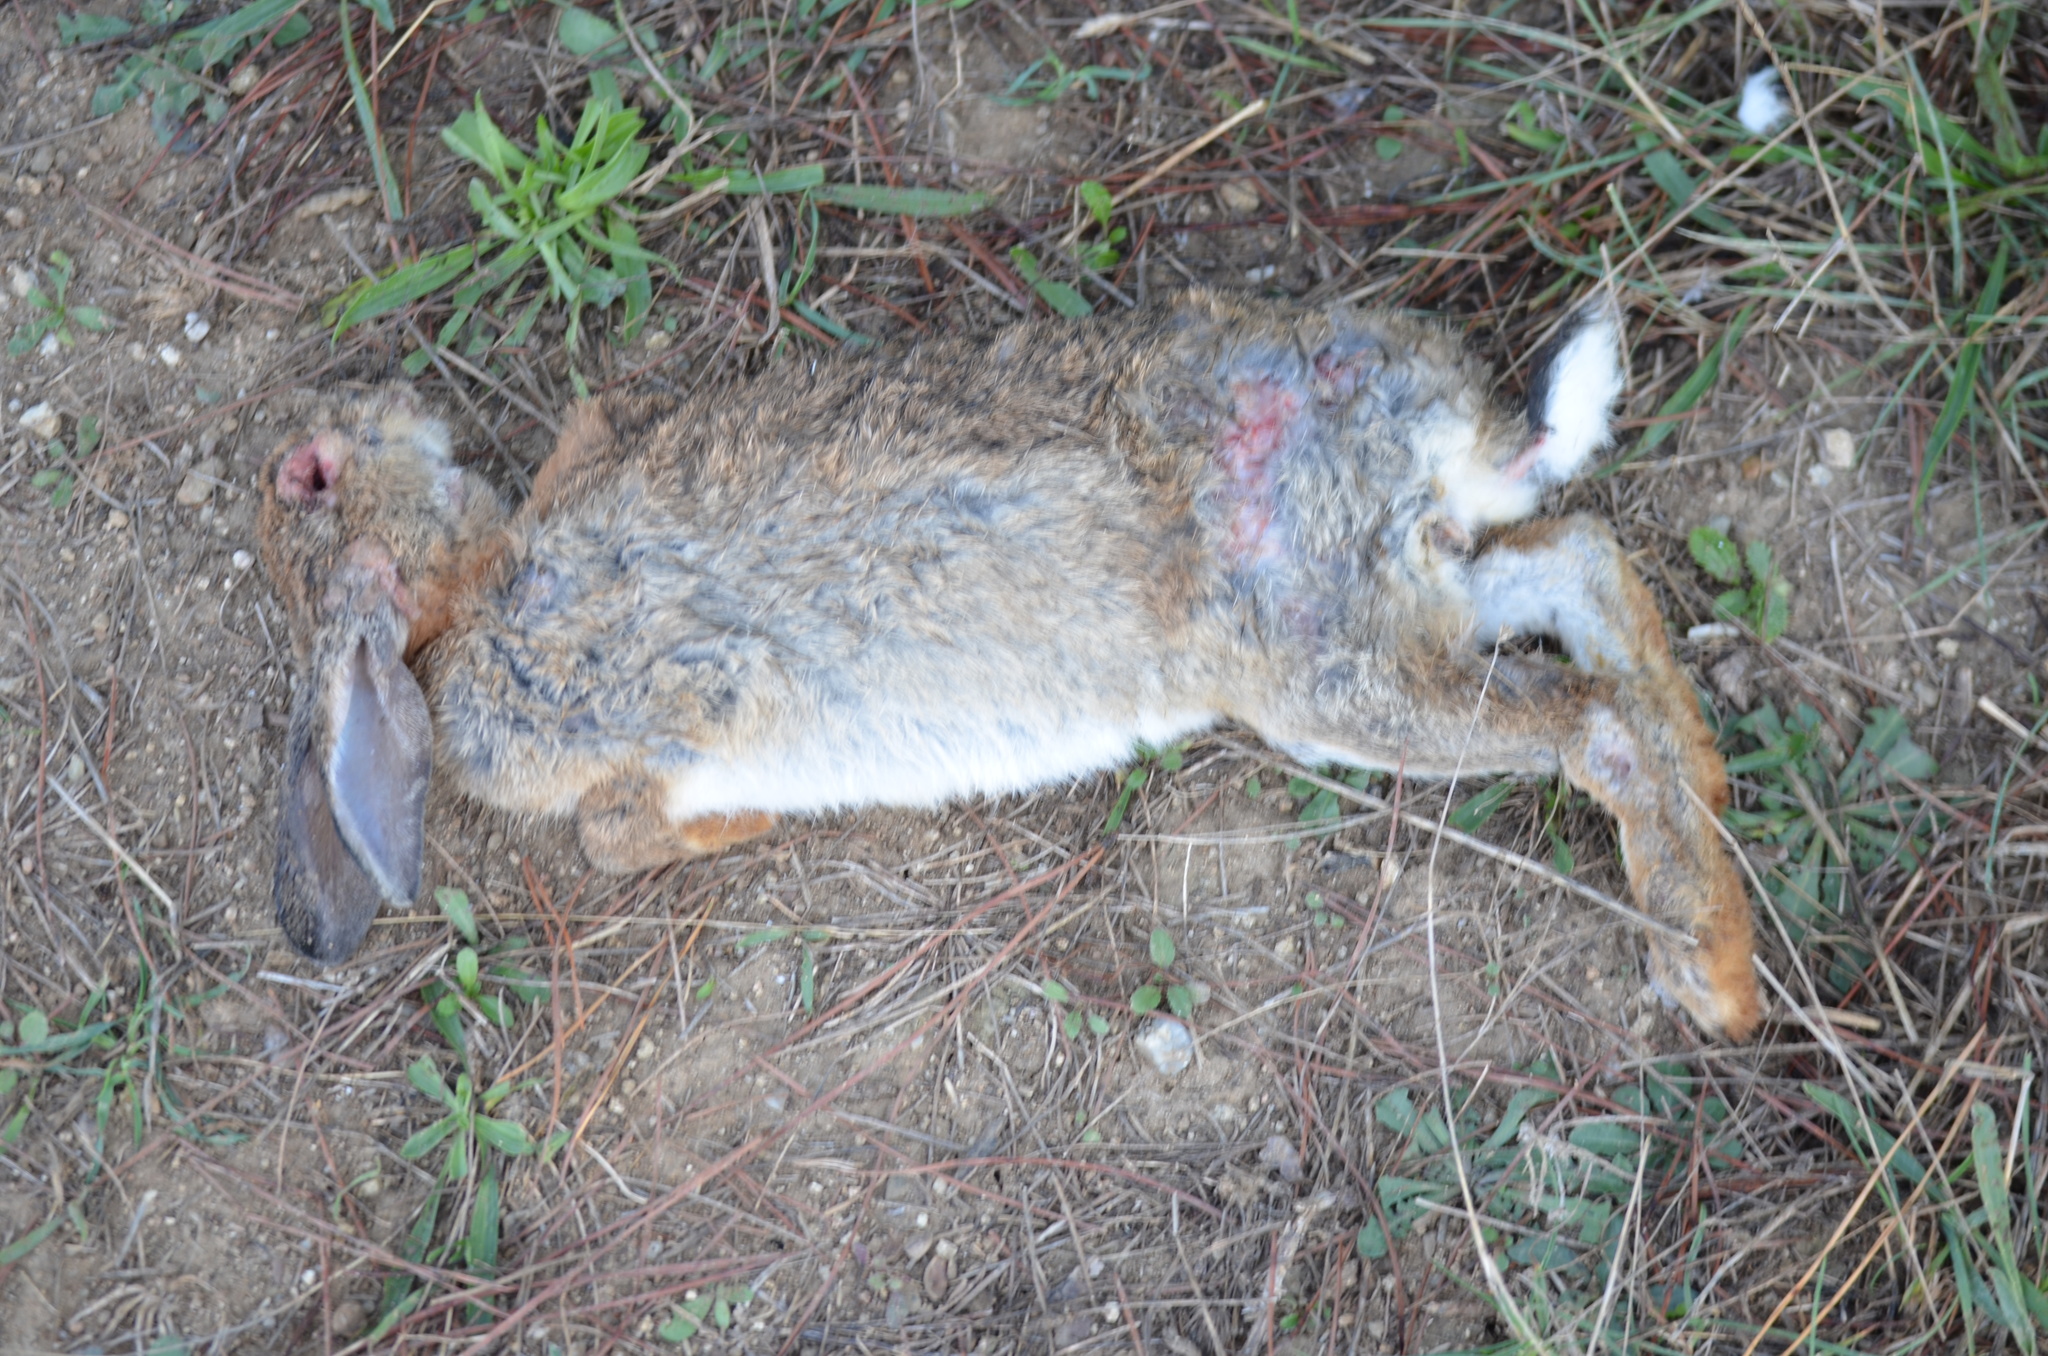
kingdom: Animalia
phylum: Chordata
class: Mammalia
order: Lagomorpha
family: Leporidae
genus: Oryctolagus
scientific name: Oryctolagus cuniculus
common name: European rabbit
